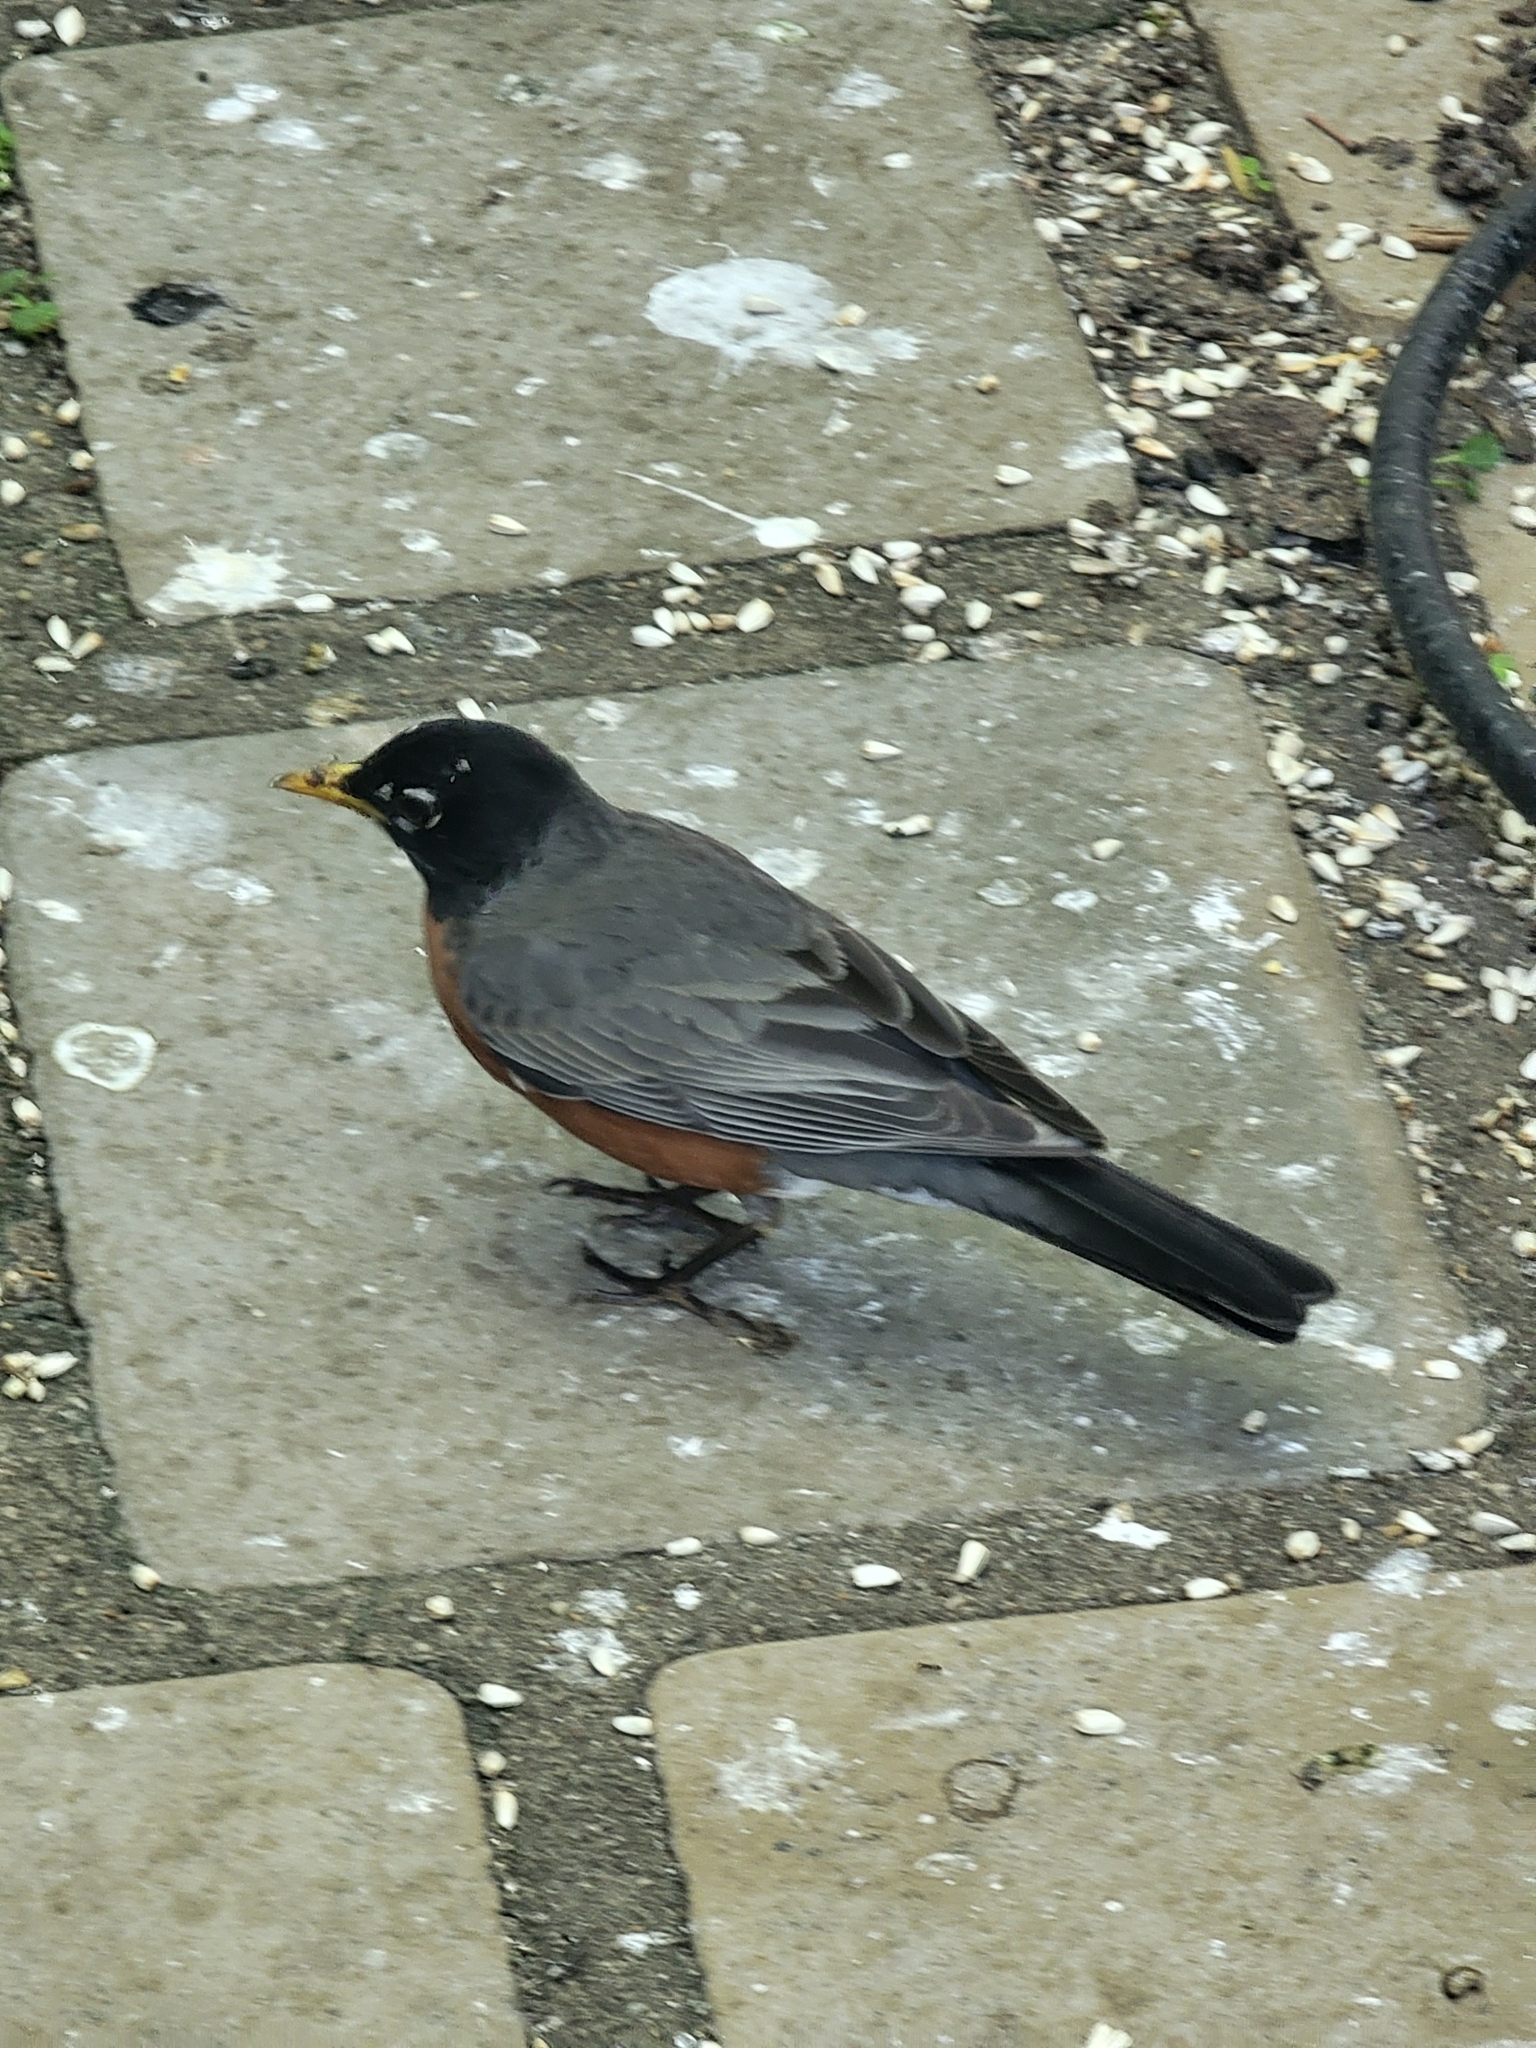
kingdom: Animalia
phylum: Chordata
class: Aves
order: Passeriformes
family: Turdidae
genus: Turdus
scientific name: Turdus migratorius
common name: American robin
